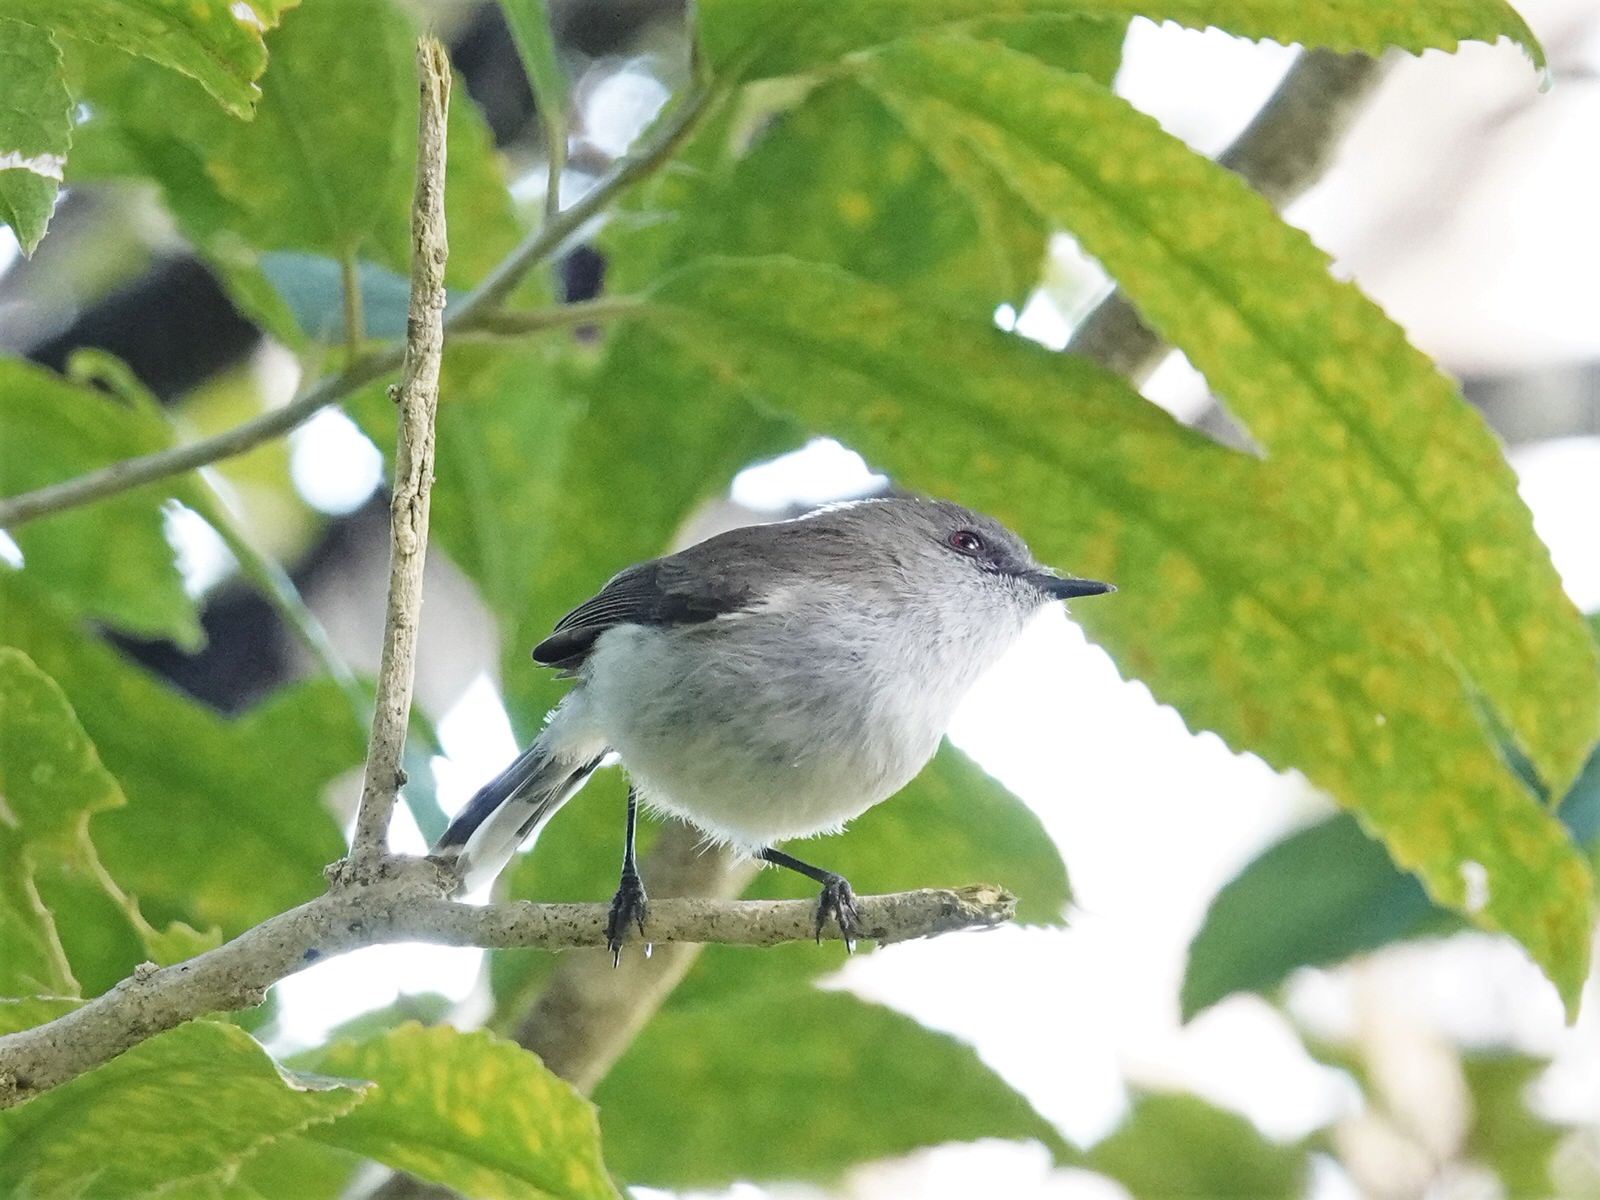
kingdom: Animalia
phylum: Chordata
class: Aves
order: Passeriformes
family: Acanthizidae
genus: Gerygone
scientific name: Gerygone igata
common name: Grey gerygone
